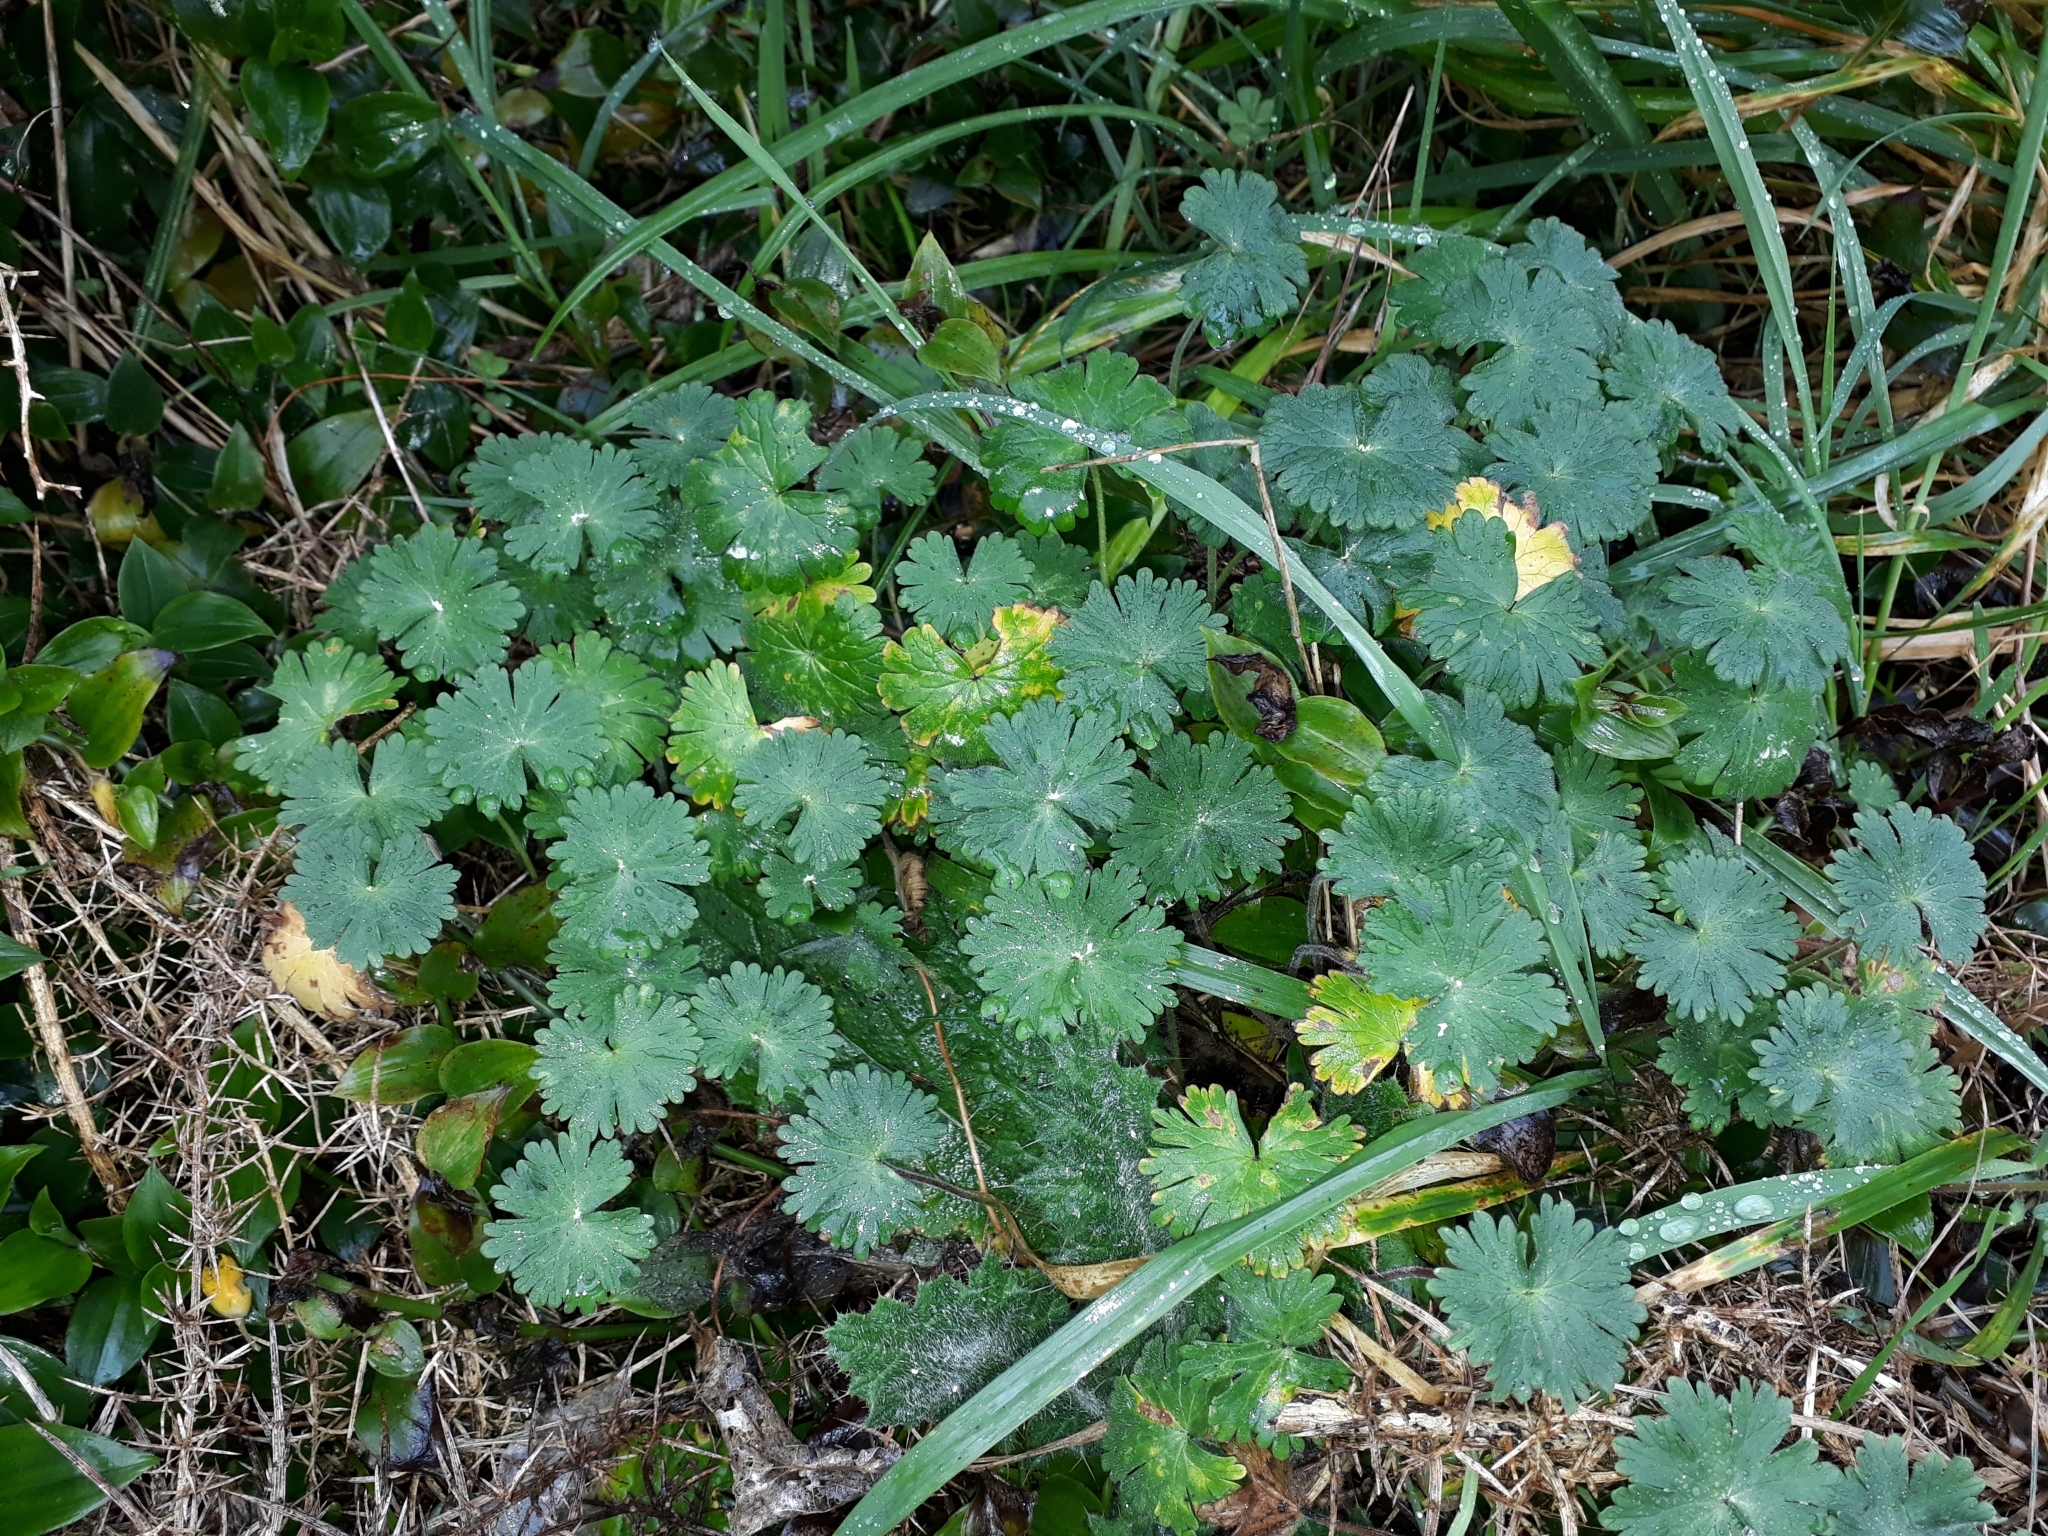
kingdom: Plantae
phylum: Tracheophyta
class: Magnoliopsida
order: Geraniales
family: Geraniaceae
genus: Geranium
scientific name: Geranium molle
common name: Dove's-foot crane's-bill
